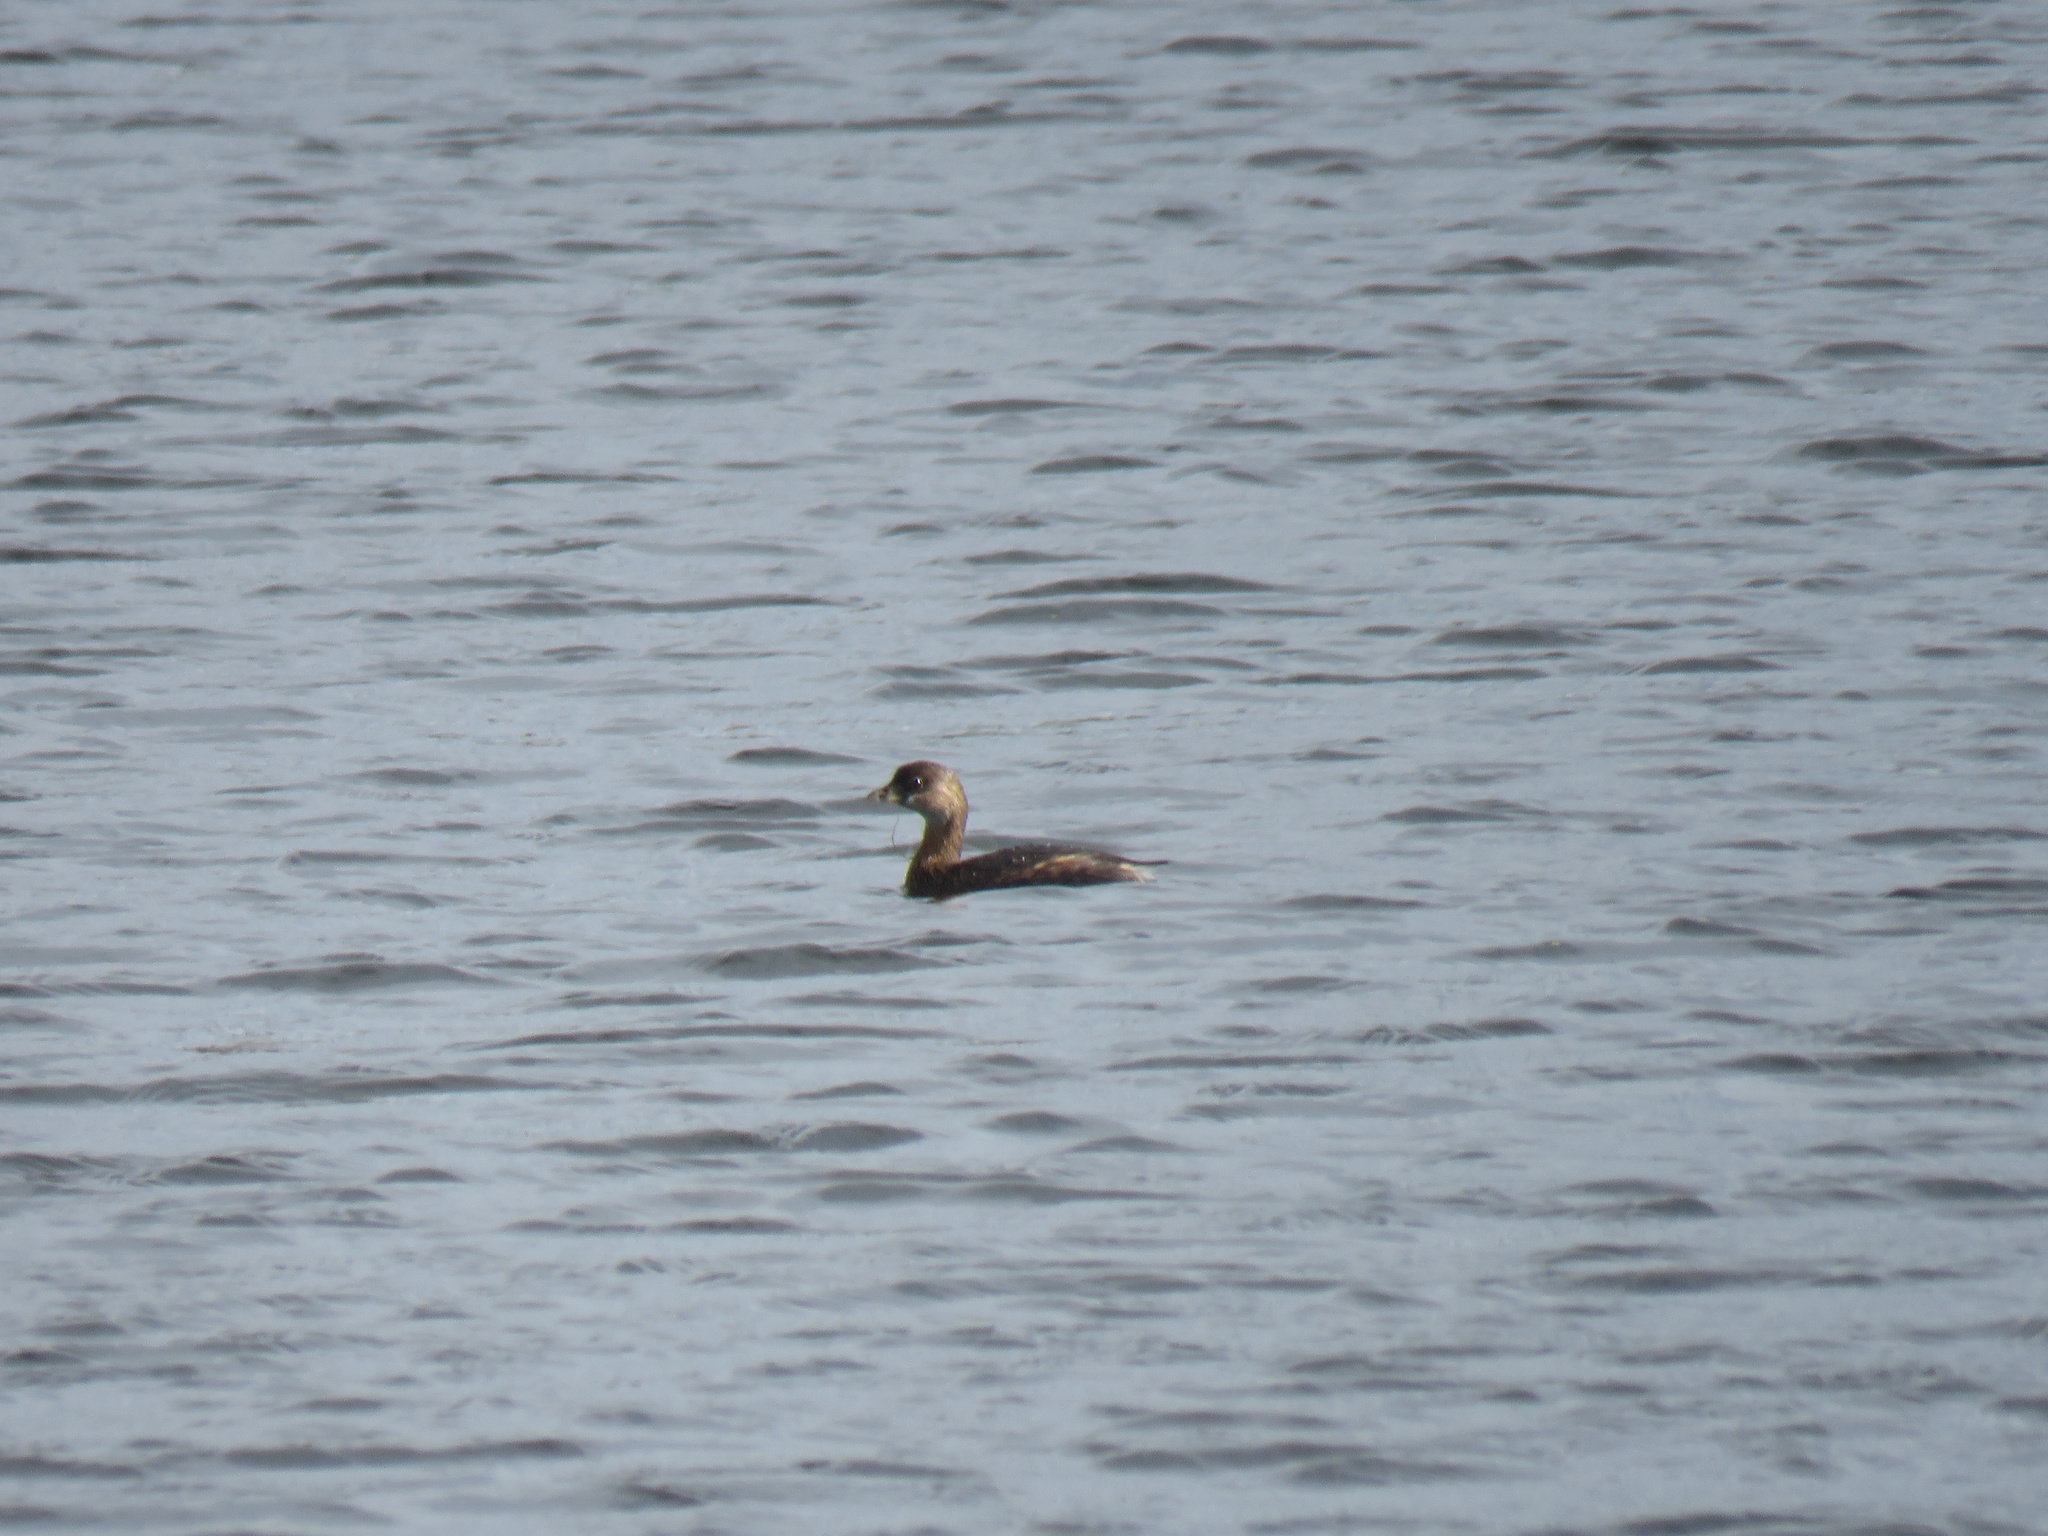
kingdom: Animalia
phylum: Chordata
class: Aves
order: Podicipediformes
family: Podicipedidae
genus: Podilymbus
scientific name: Podilymbus podiceps
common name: Pied-billed grebe
